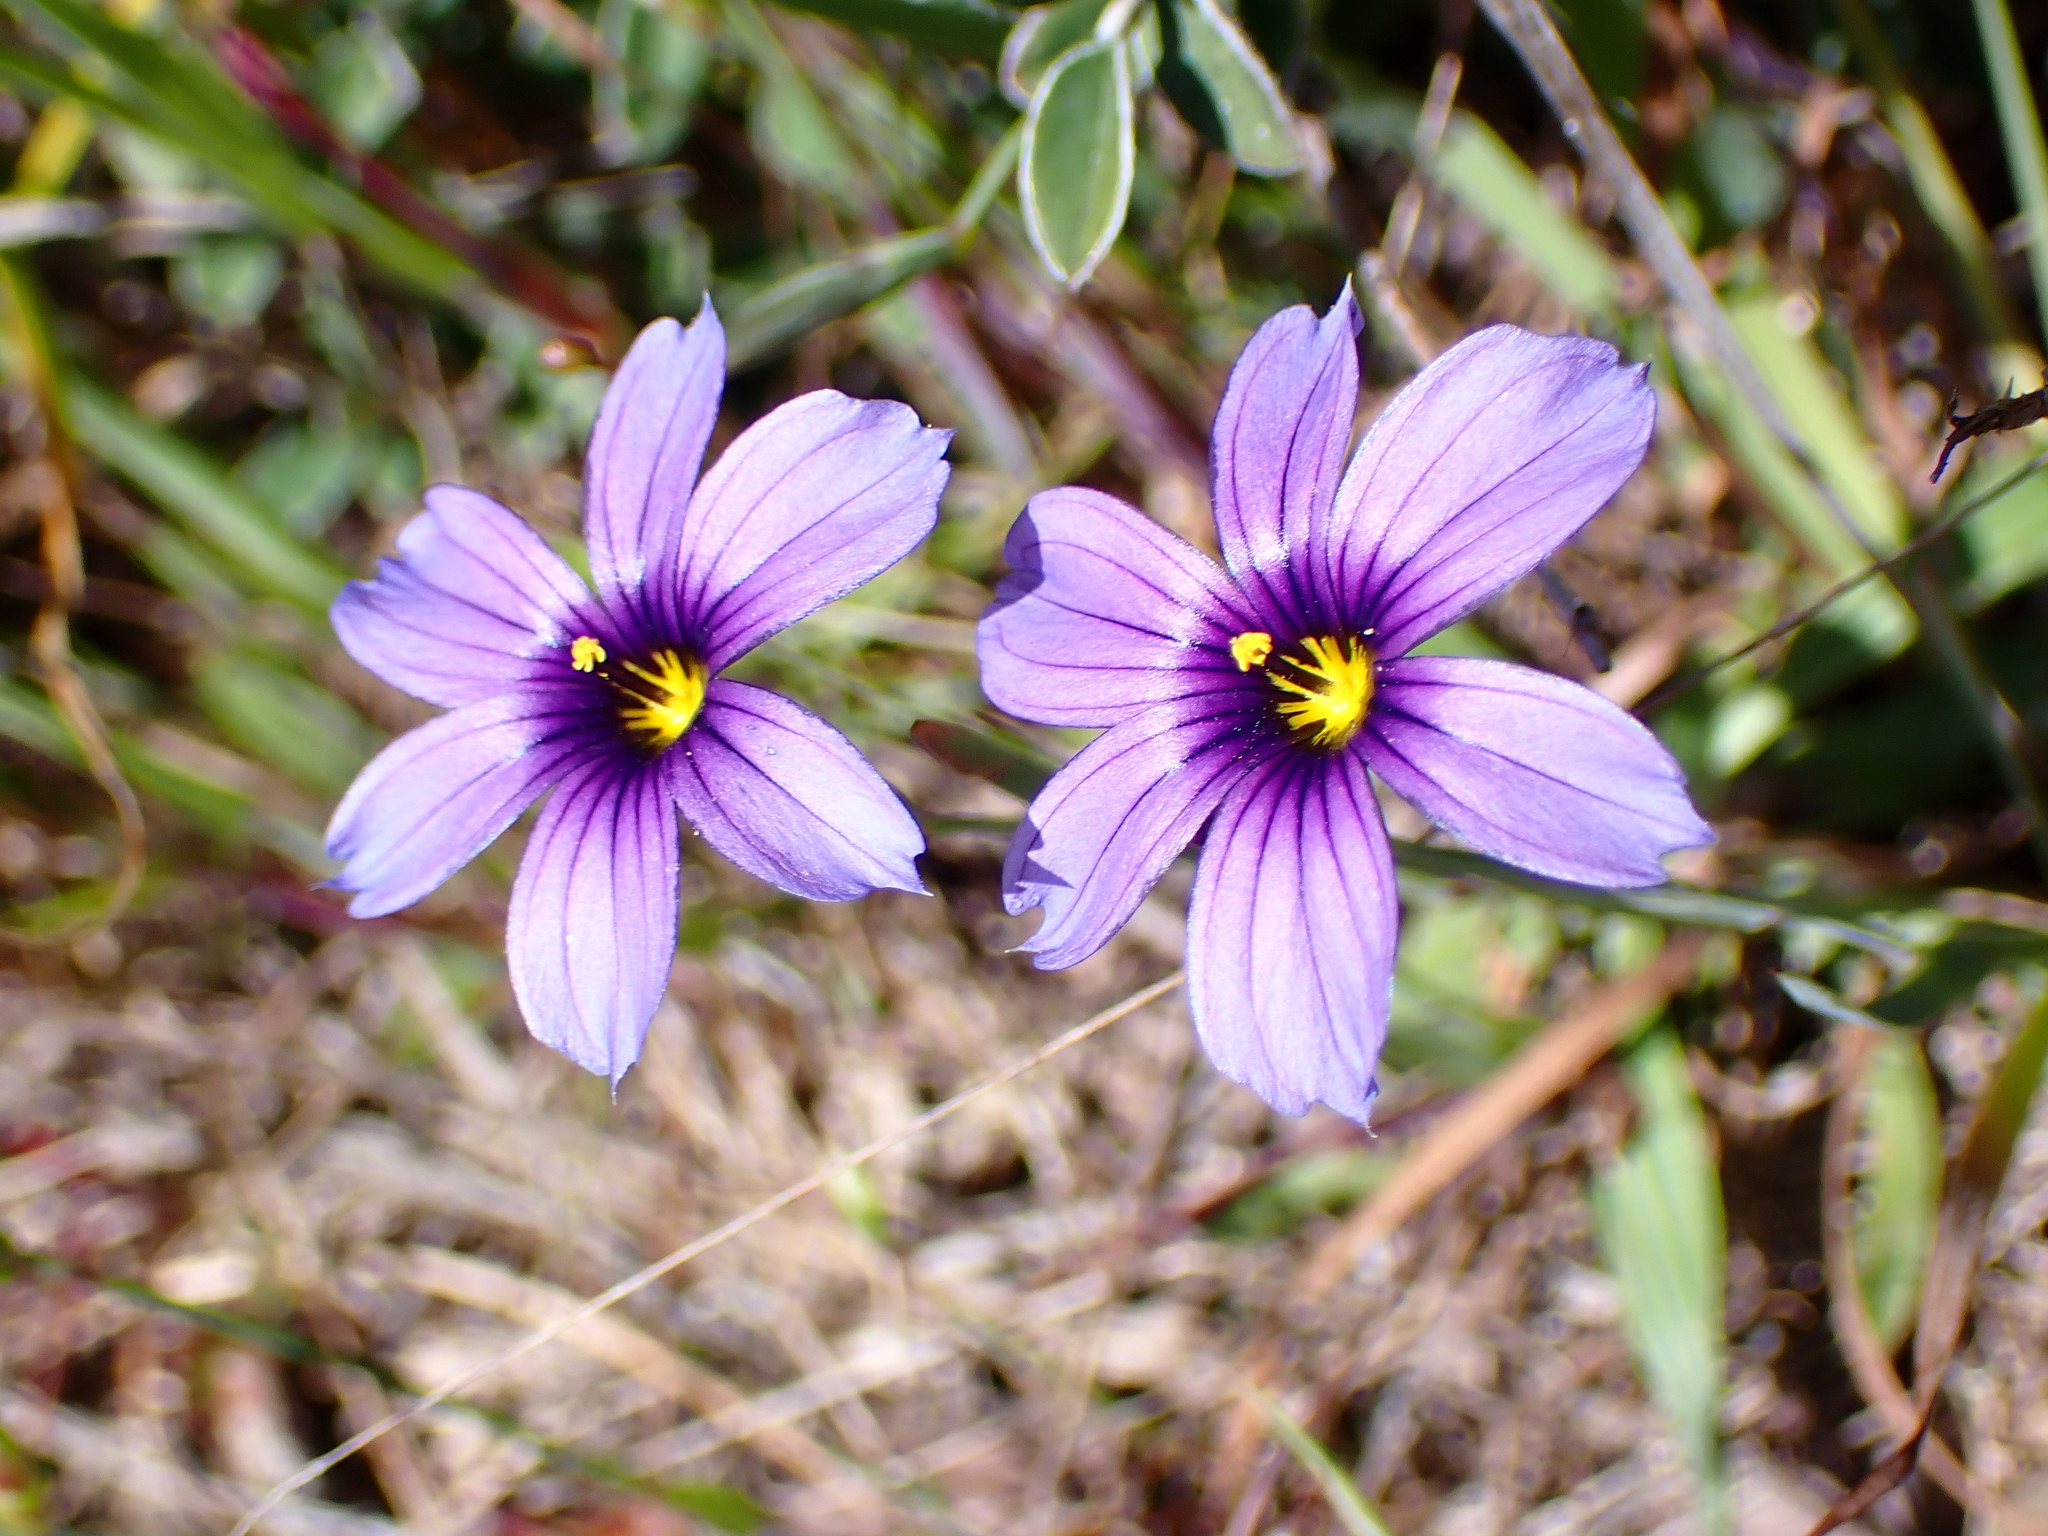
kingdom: Plantae
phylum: Tracheophyta
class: Liliopsida
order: Asparagales
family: Iridaceae
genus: Sisyrinchium
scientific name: Sisyrinchium bellum
